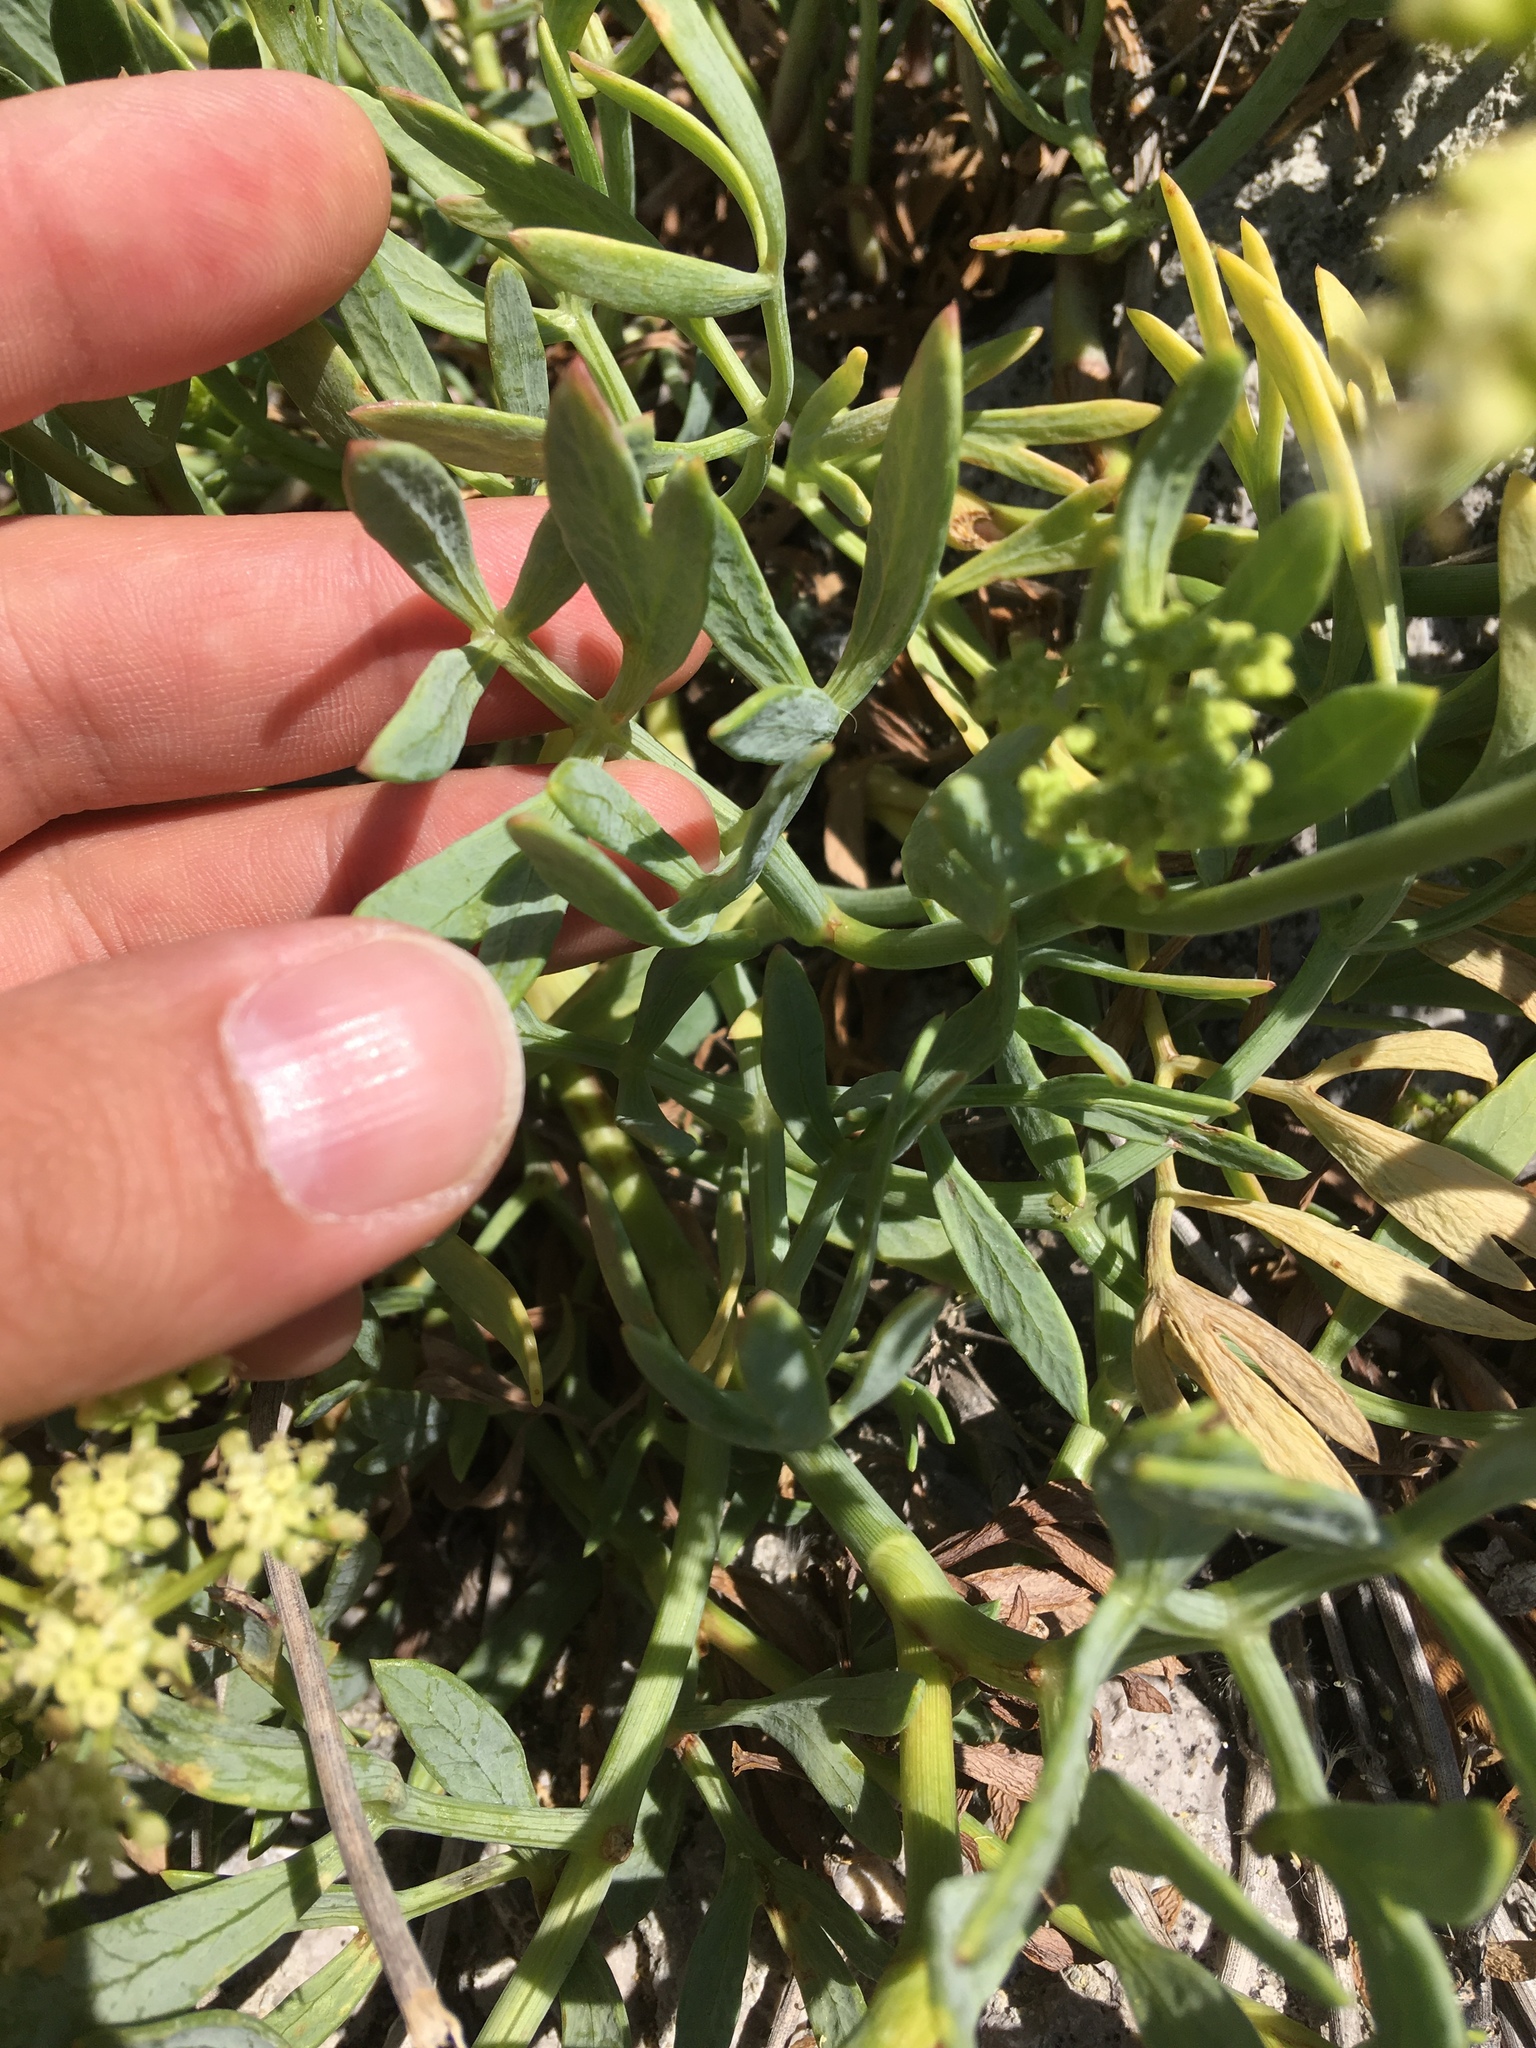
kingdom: Plantae
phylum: Tracheophyta
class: Magnoliopsida
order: Apiales
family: Apiaceae
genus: Crithmum
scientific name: Crithmum maritimum
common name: Rock samphire
